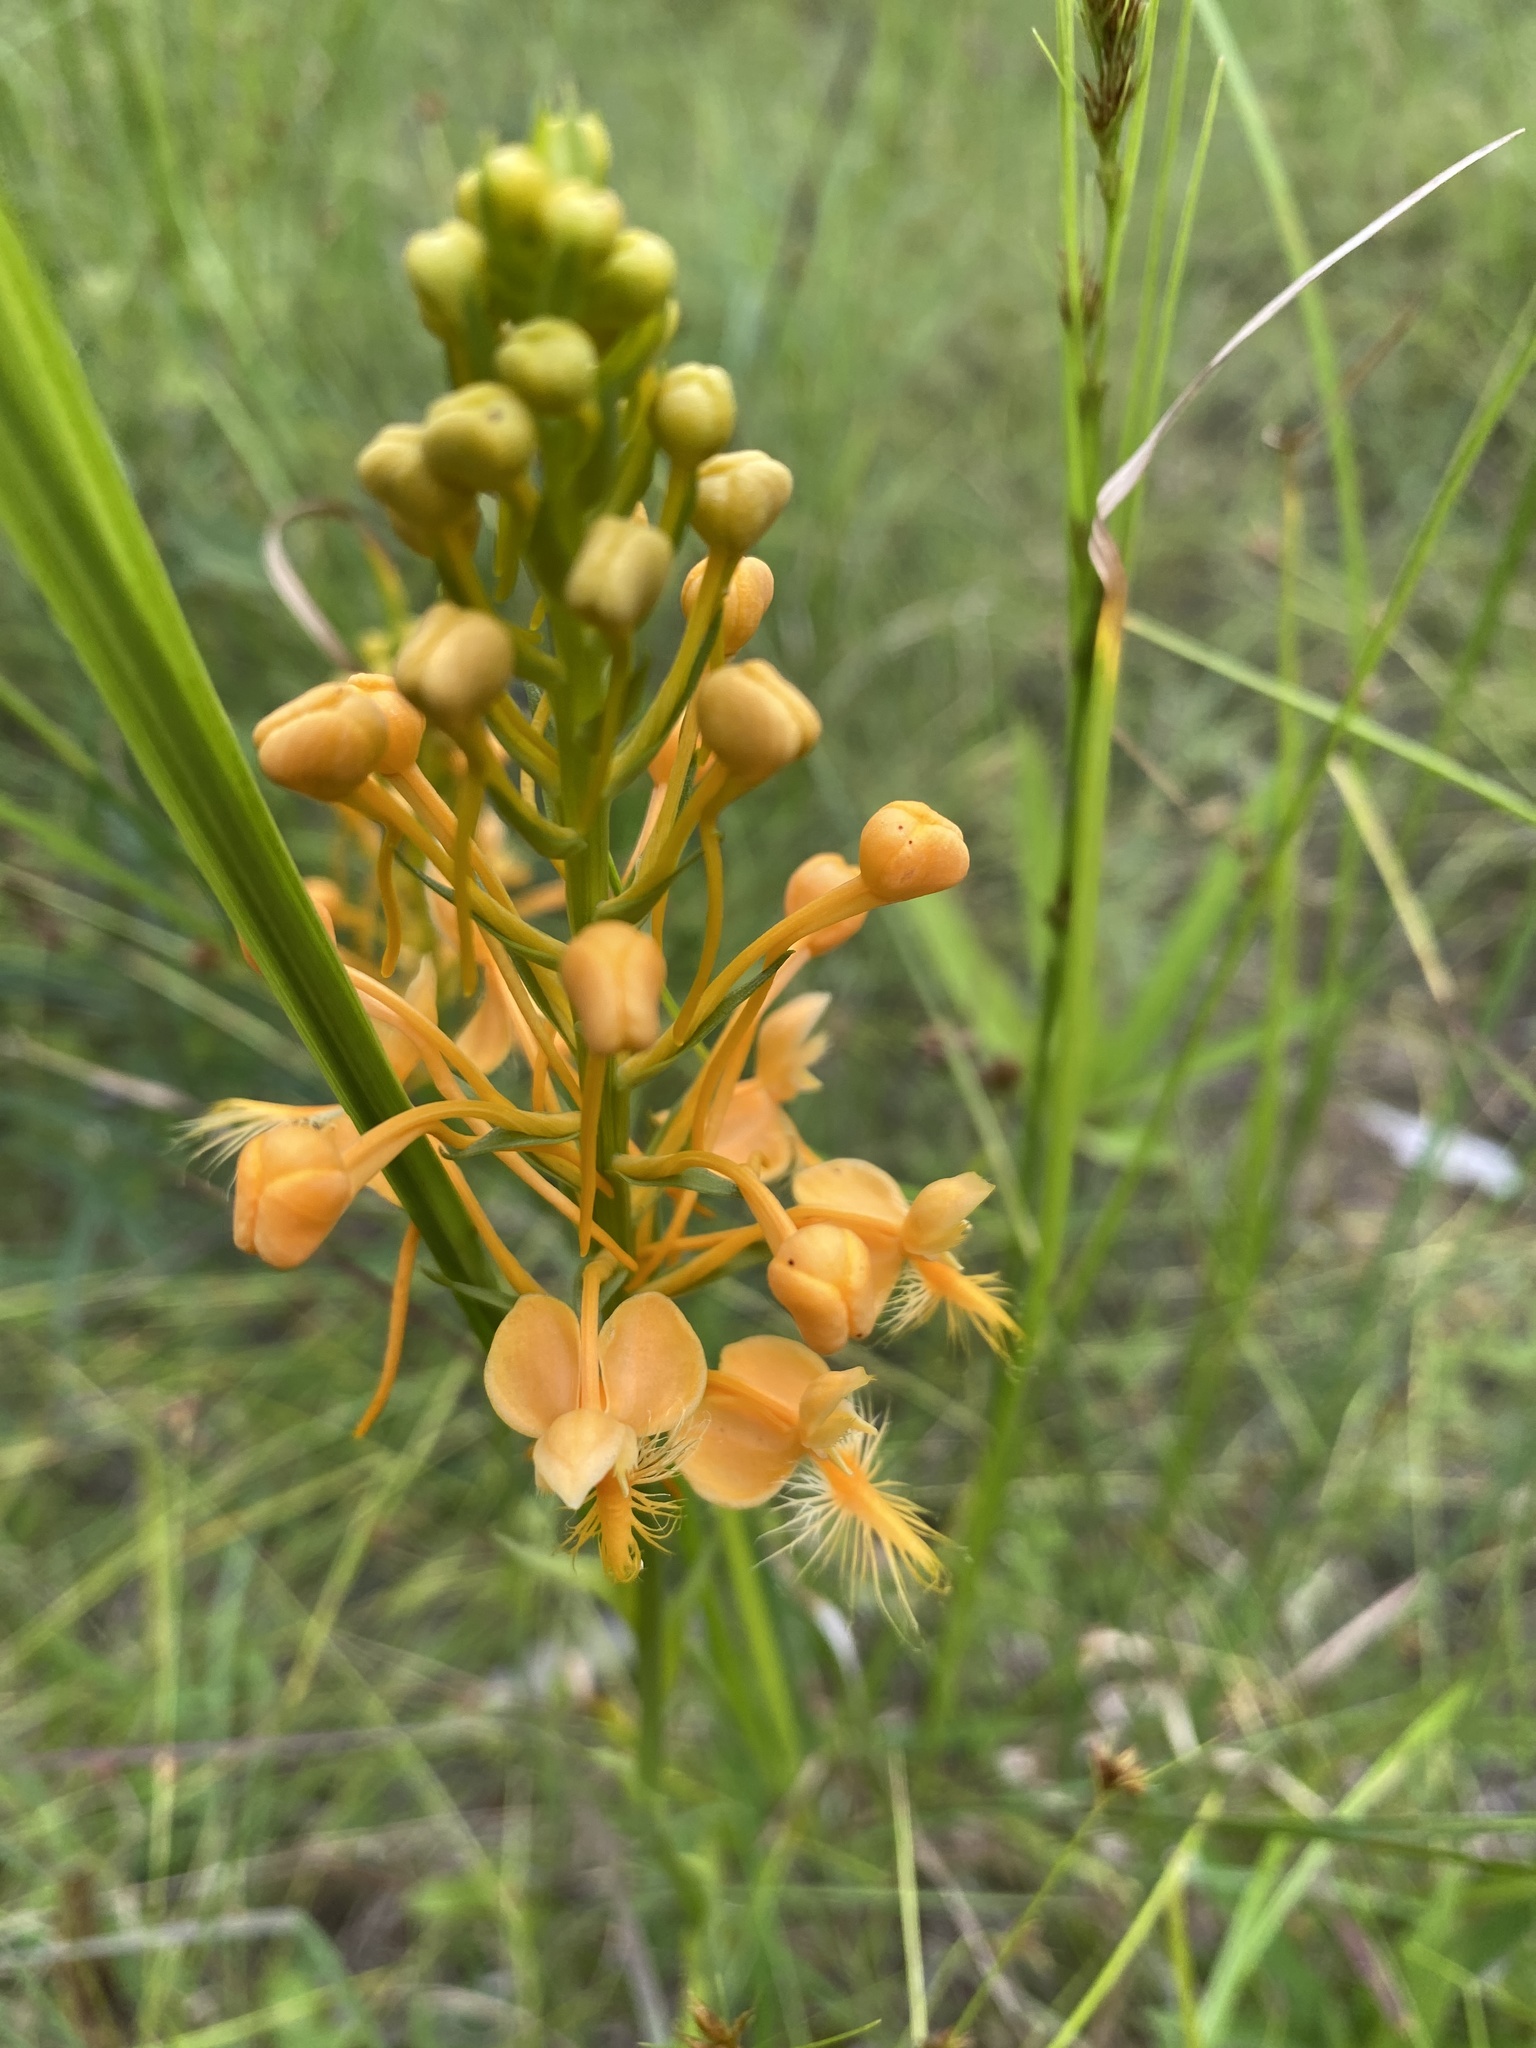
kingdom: Plantae
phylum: Tracheophyta
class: Liliopsida
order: Asparagales
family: Orchidaceae
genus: Platanthera
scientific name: Platanthera ciliaris
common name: Yellow fringed orchid
